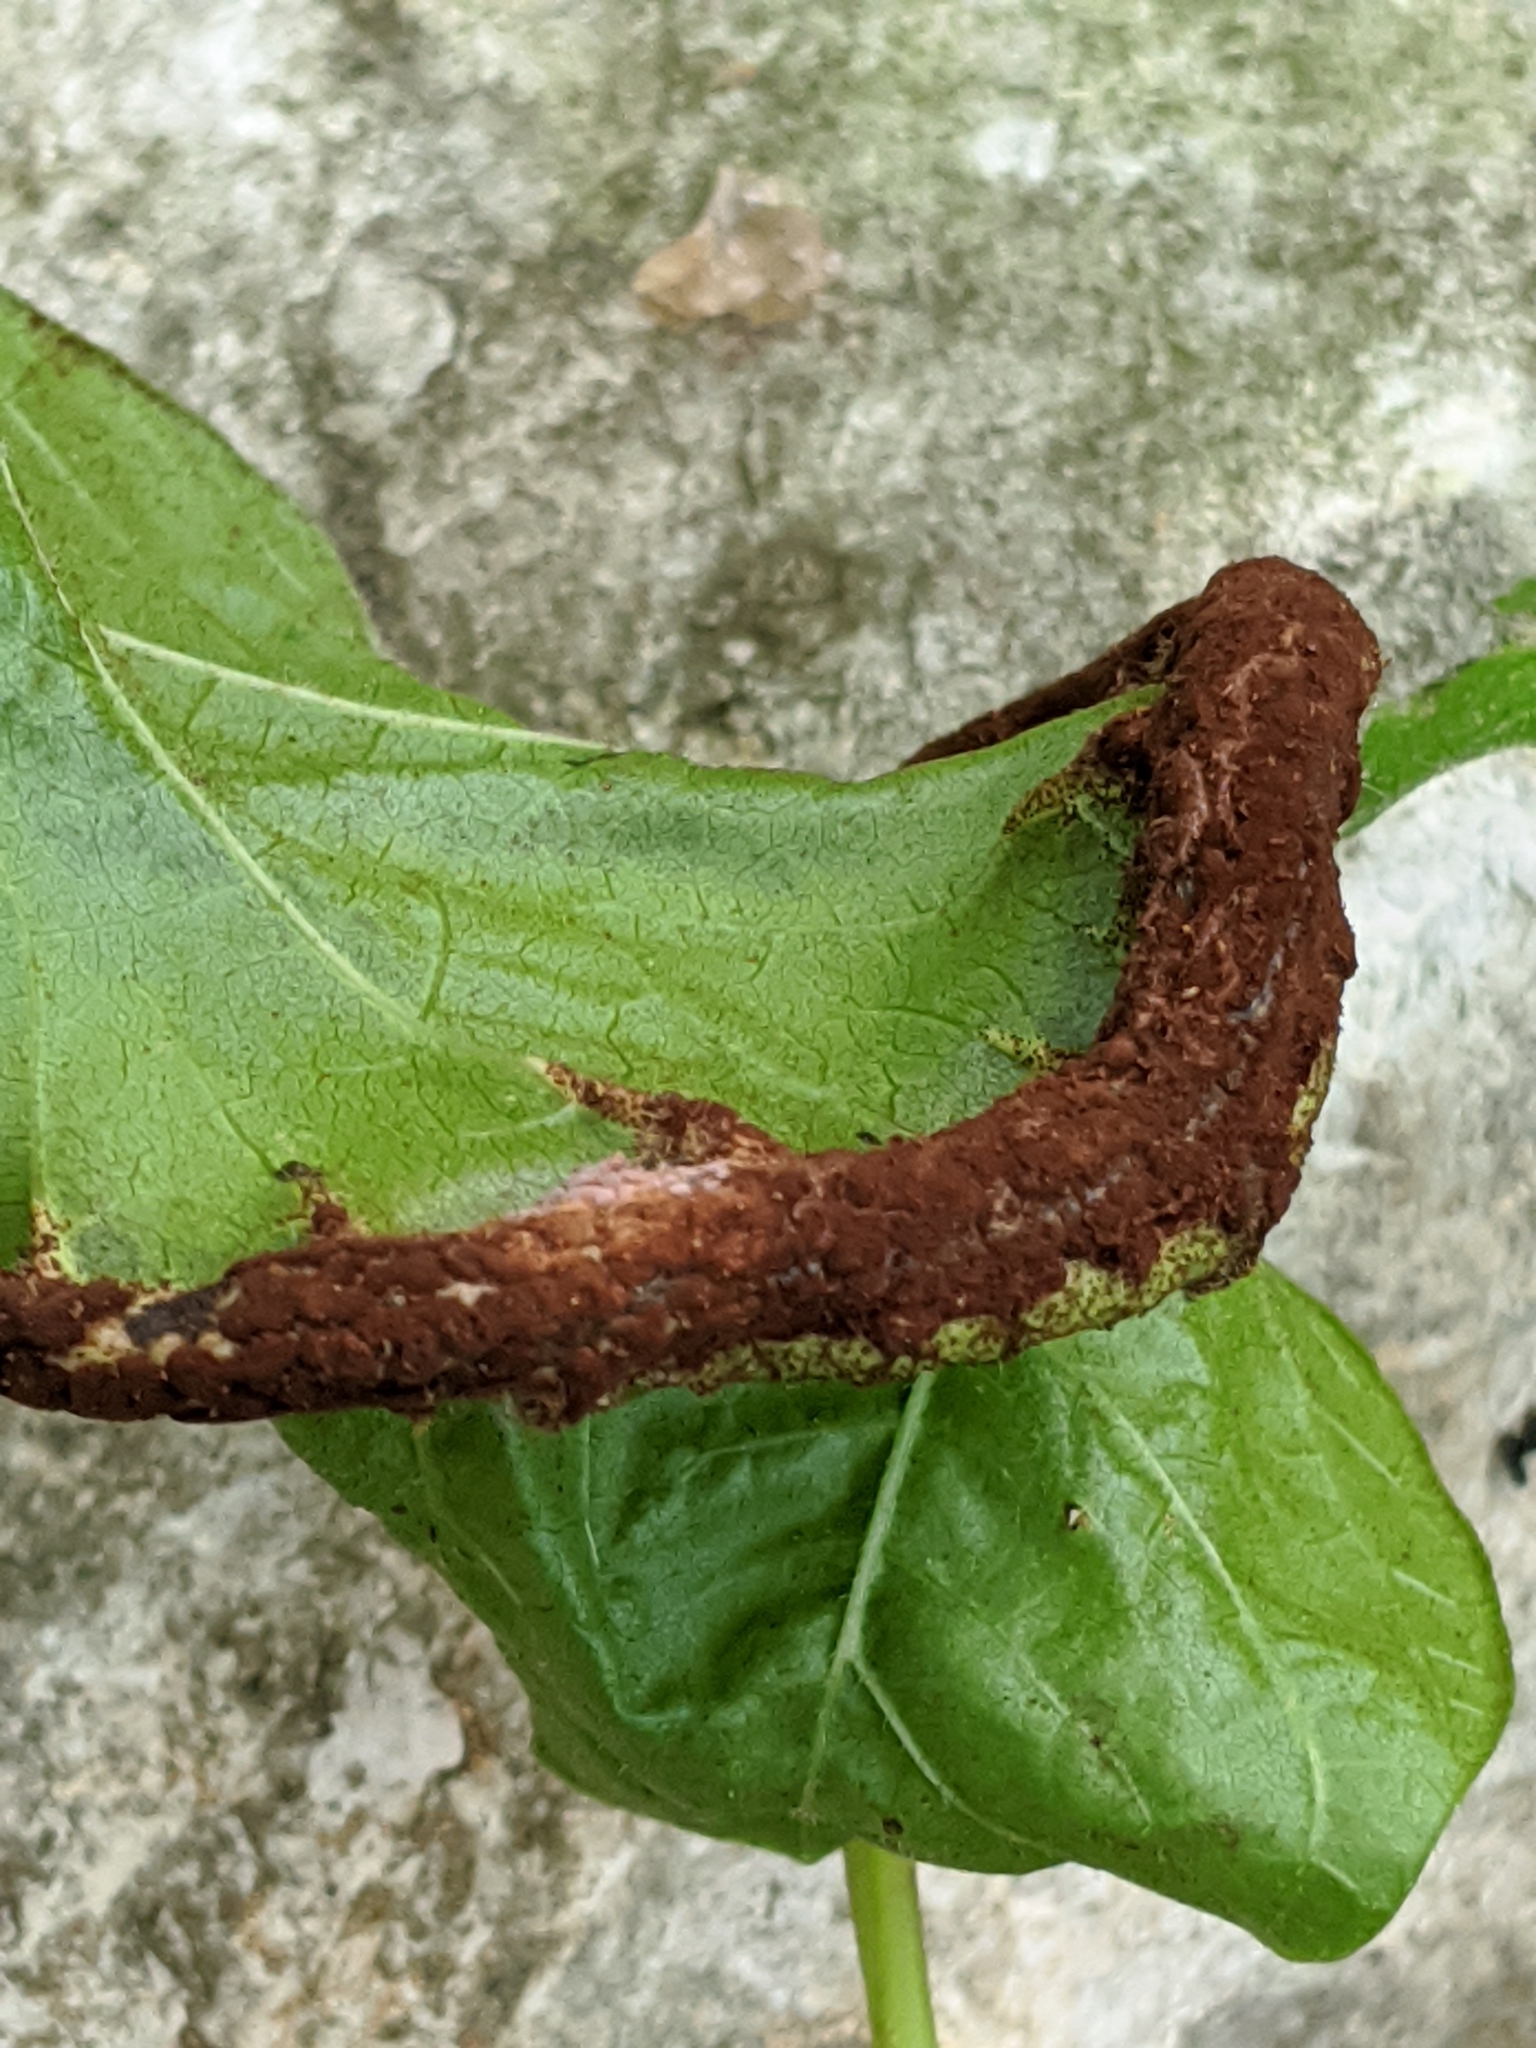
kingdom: Fungi
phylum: Basidiomycota
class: Pucciniomycetes
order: Pucciniales
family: Pileolariaceae
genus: Pileolaria
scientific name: Pileolaria brevipes
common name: Poison ivy rust
